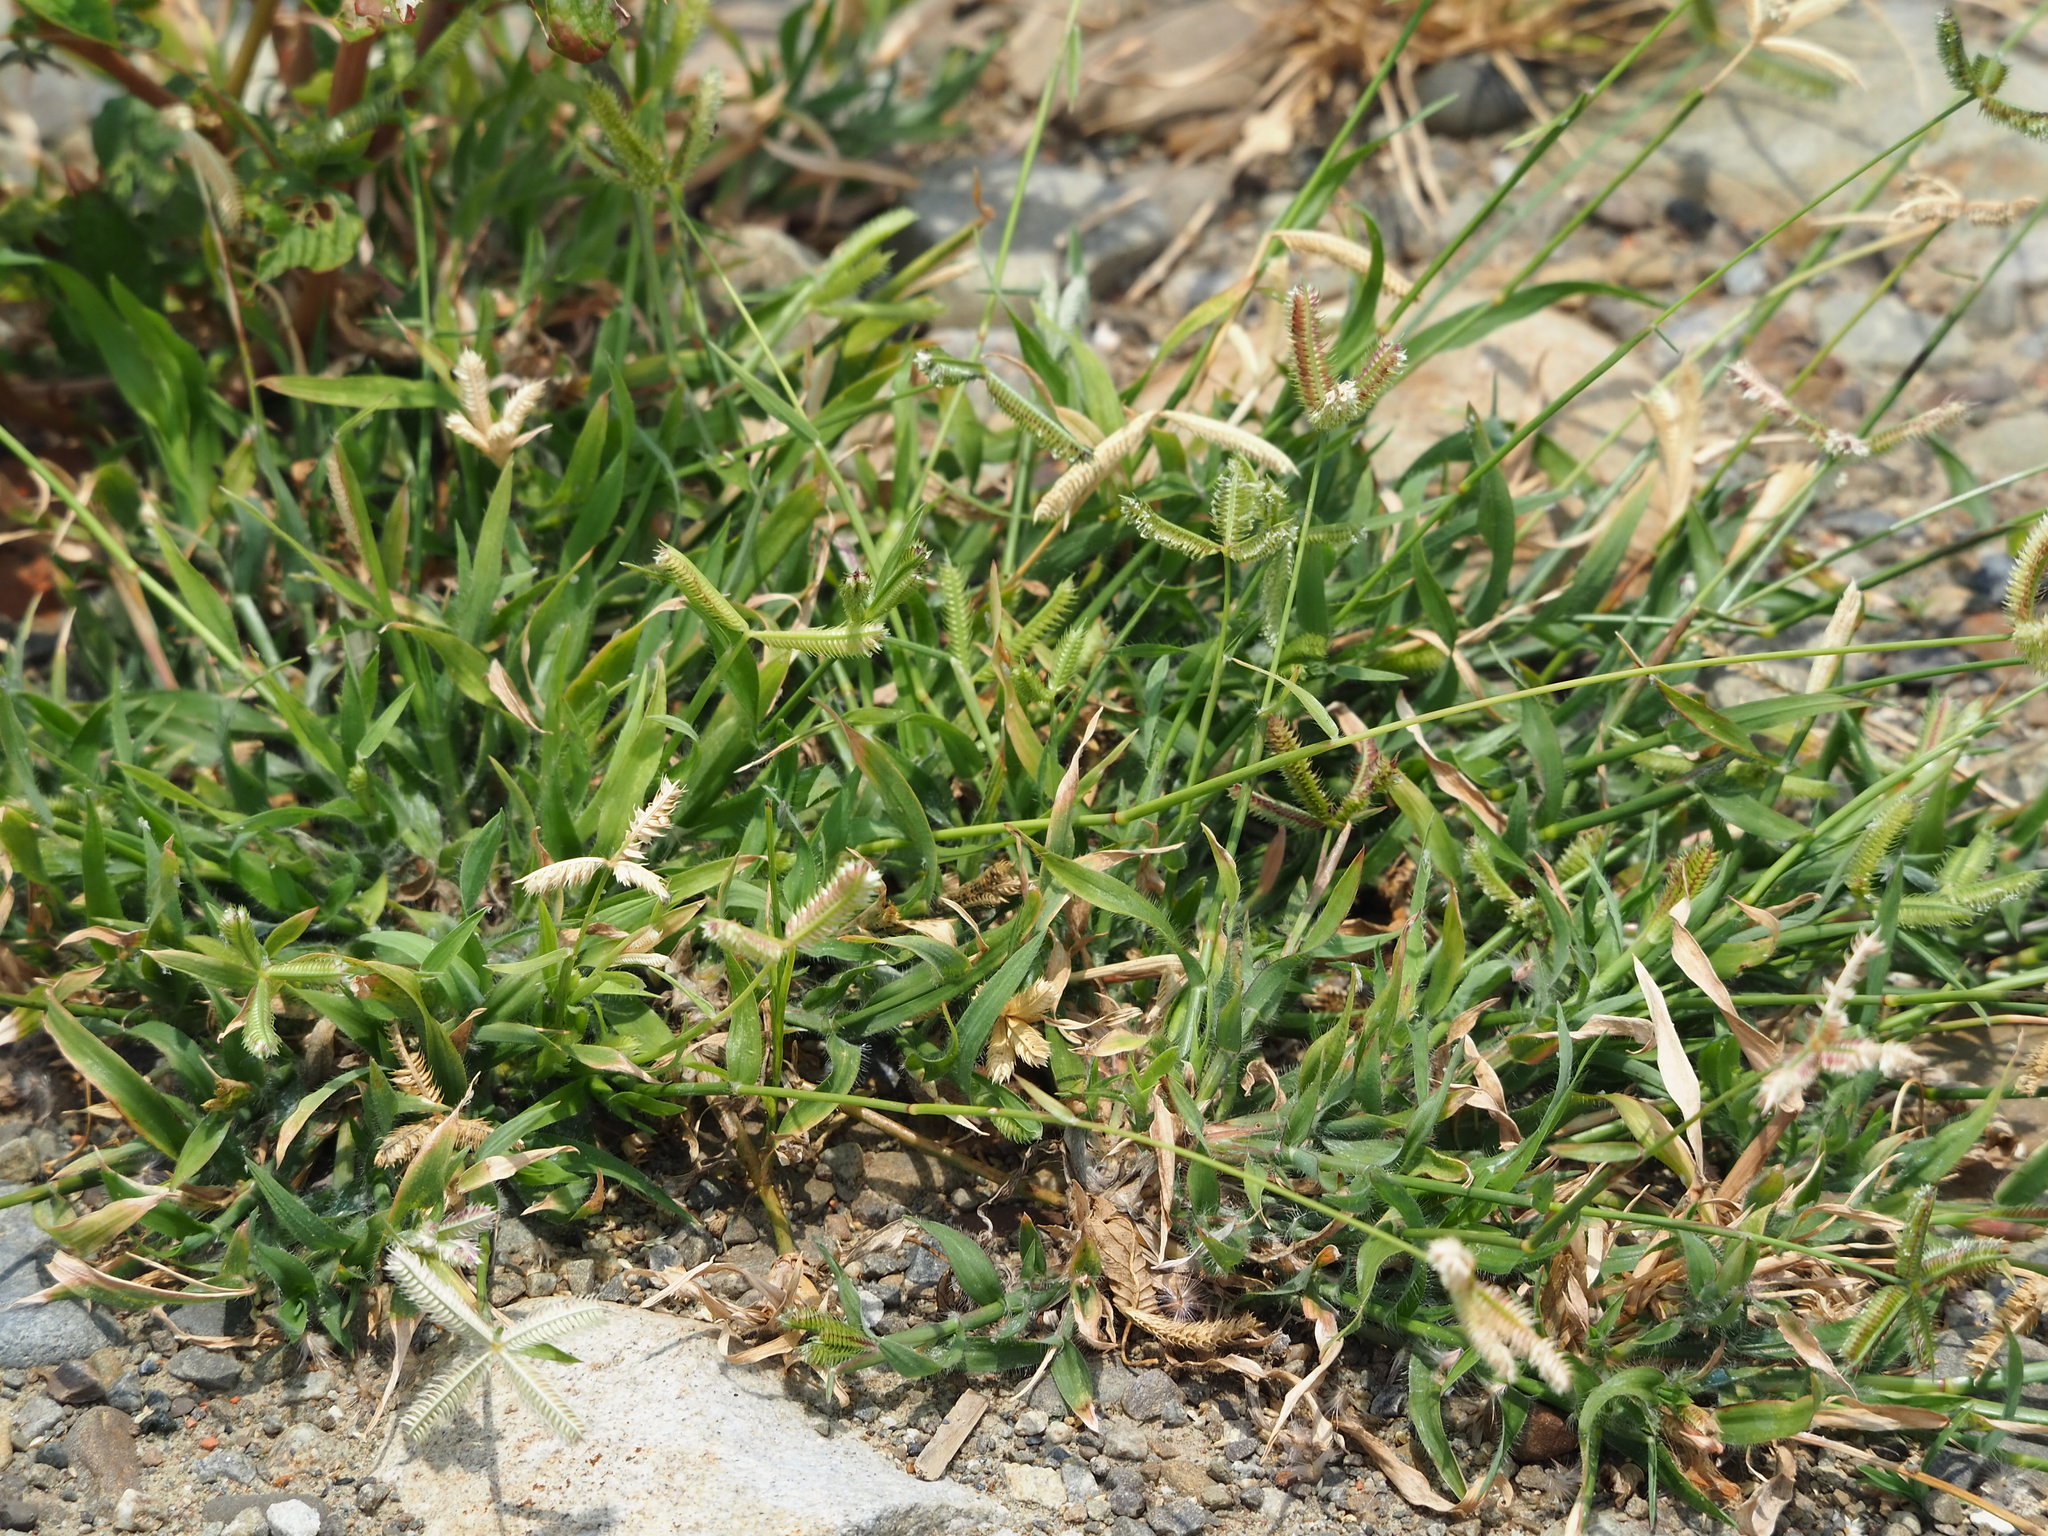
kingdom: Plantae
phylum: Tracheophyta
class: Liliopsida
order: Poales
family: Poaceae
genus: Dactyloctenium
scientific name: Dactyloctenium aegyptium
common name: Egyptian grass
